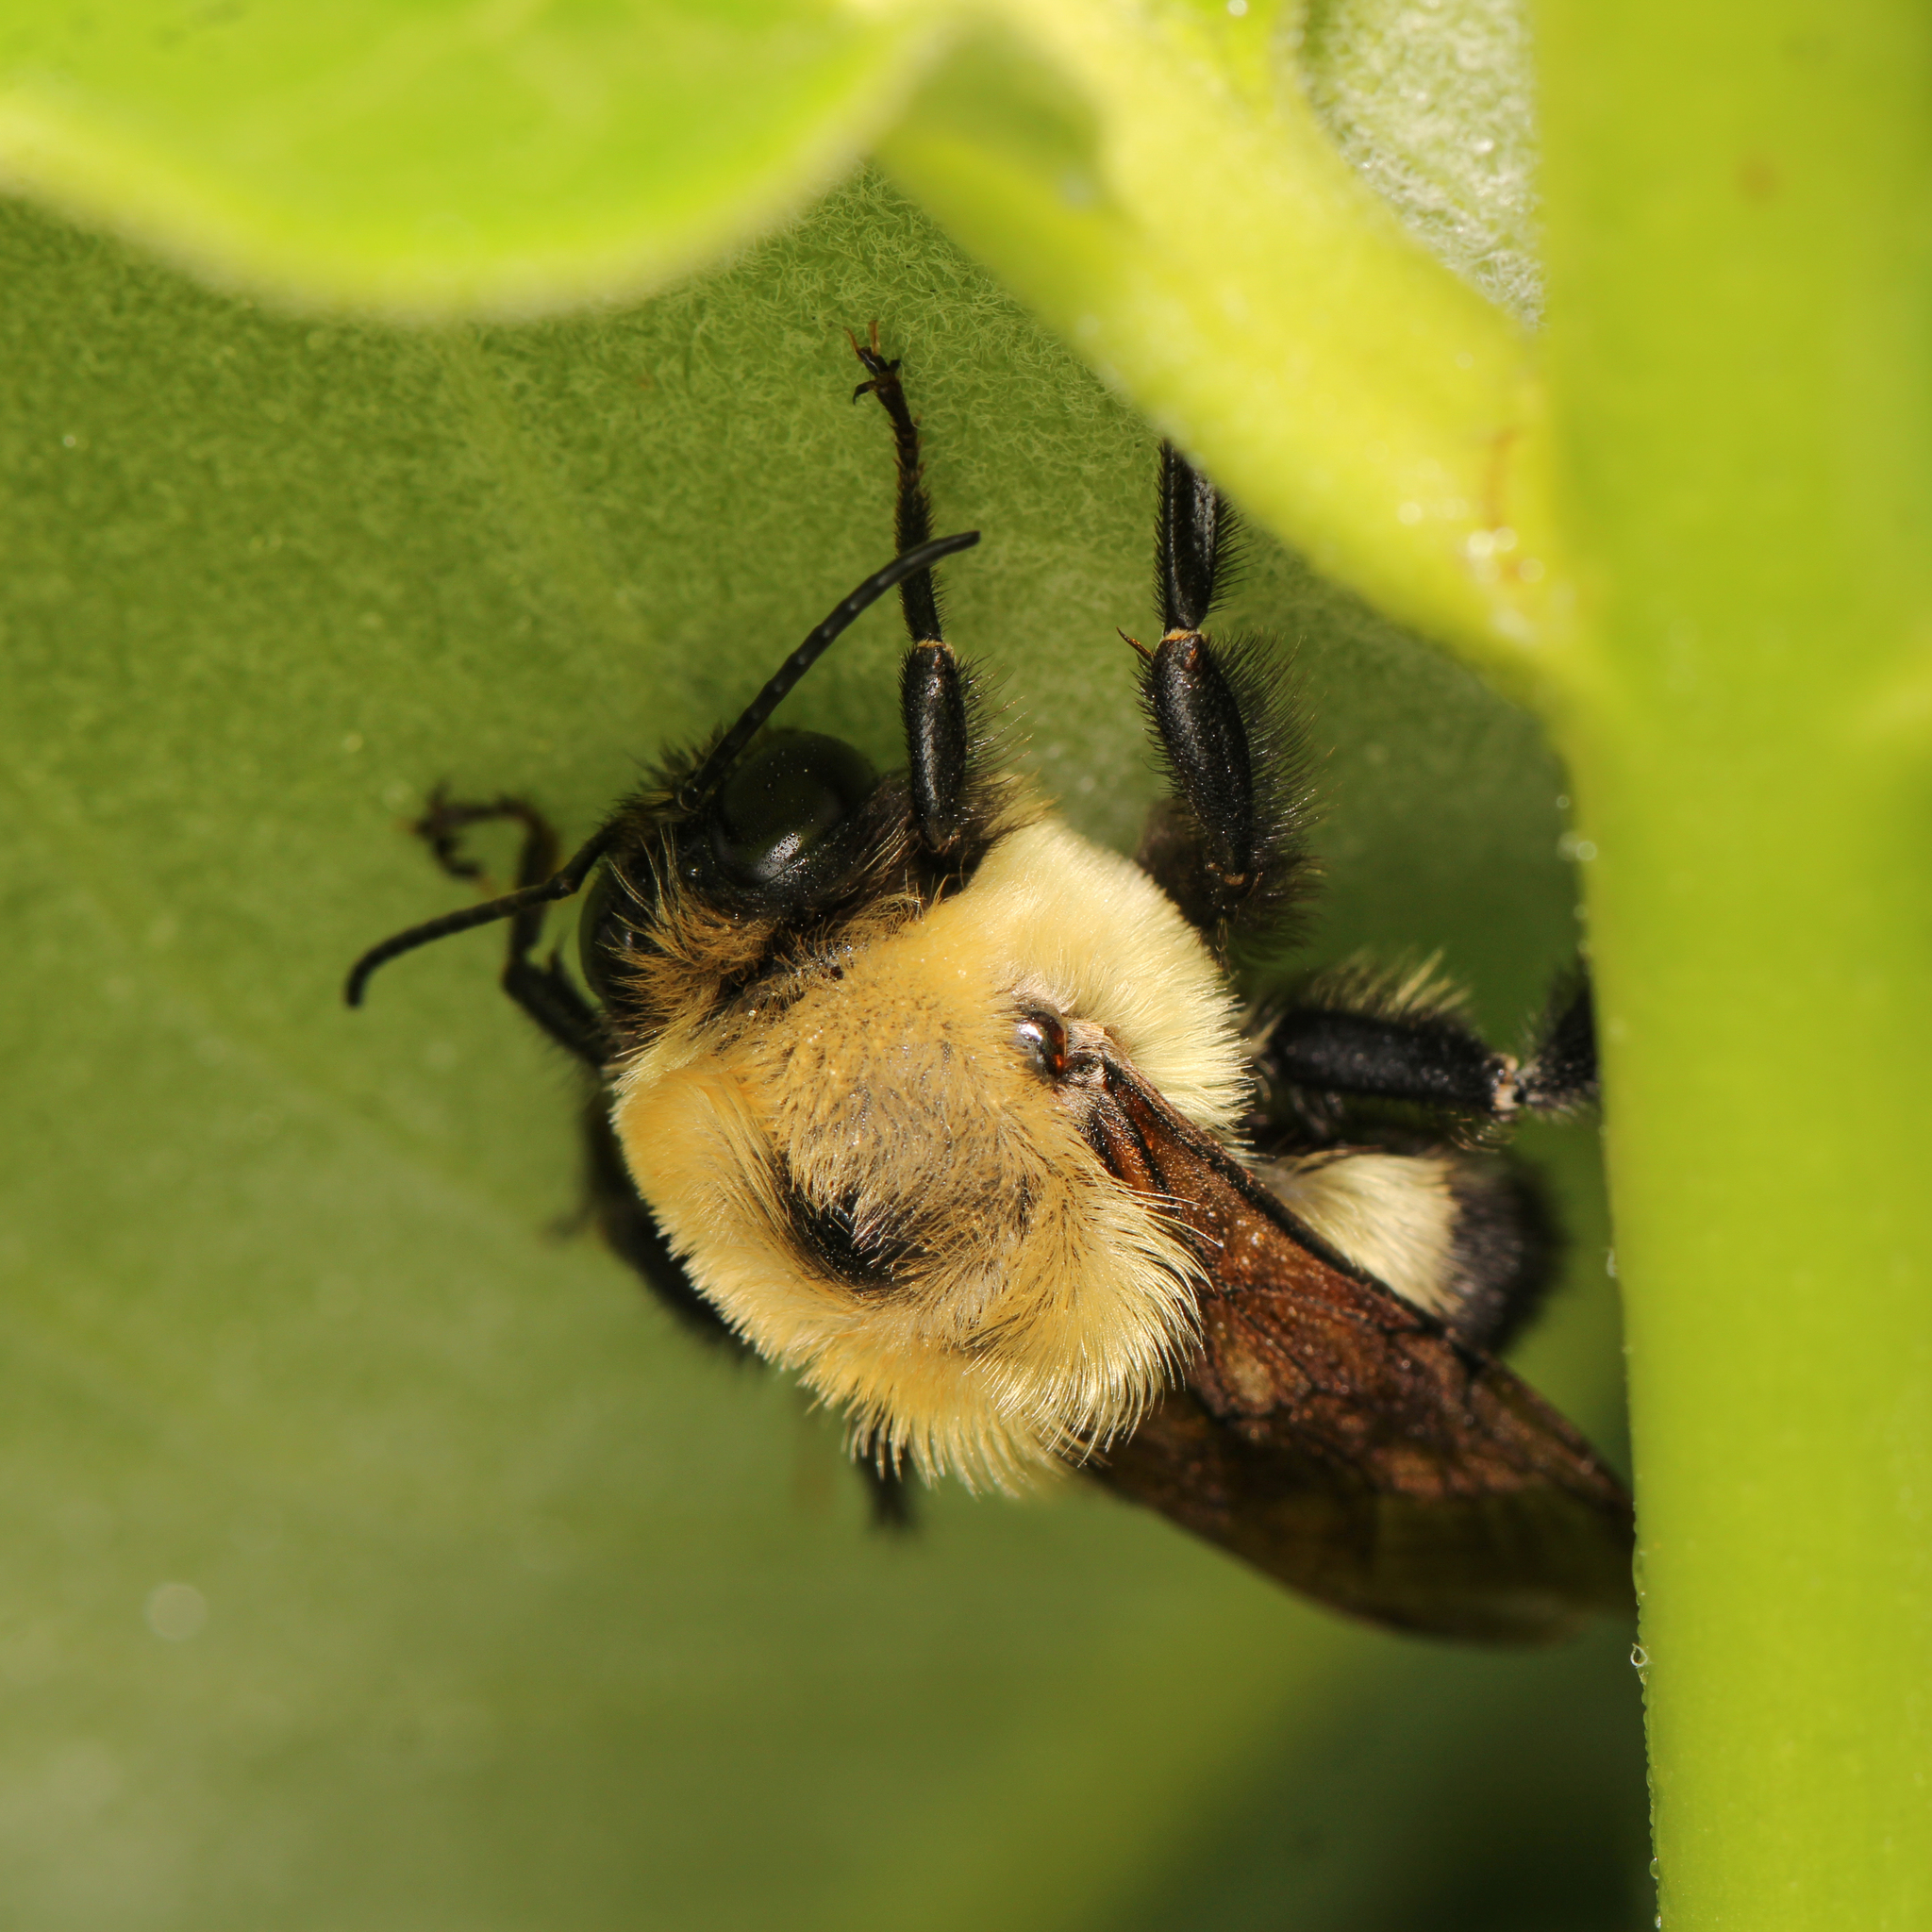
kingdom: Animalia
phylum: Arthropoda
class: Insecta
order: Hymenoptera
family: Apidae
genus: Bombus
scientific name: Bombus griseocollis
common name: Brown-belted bumble bee
